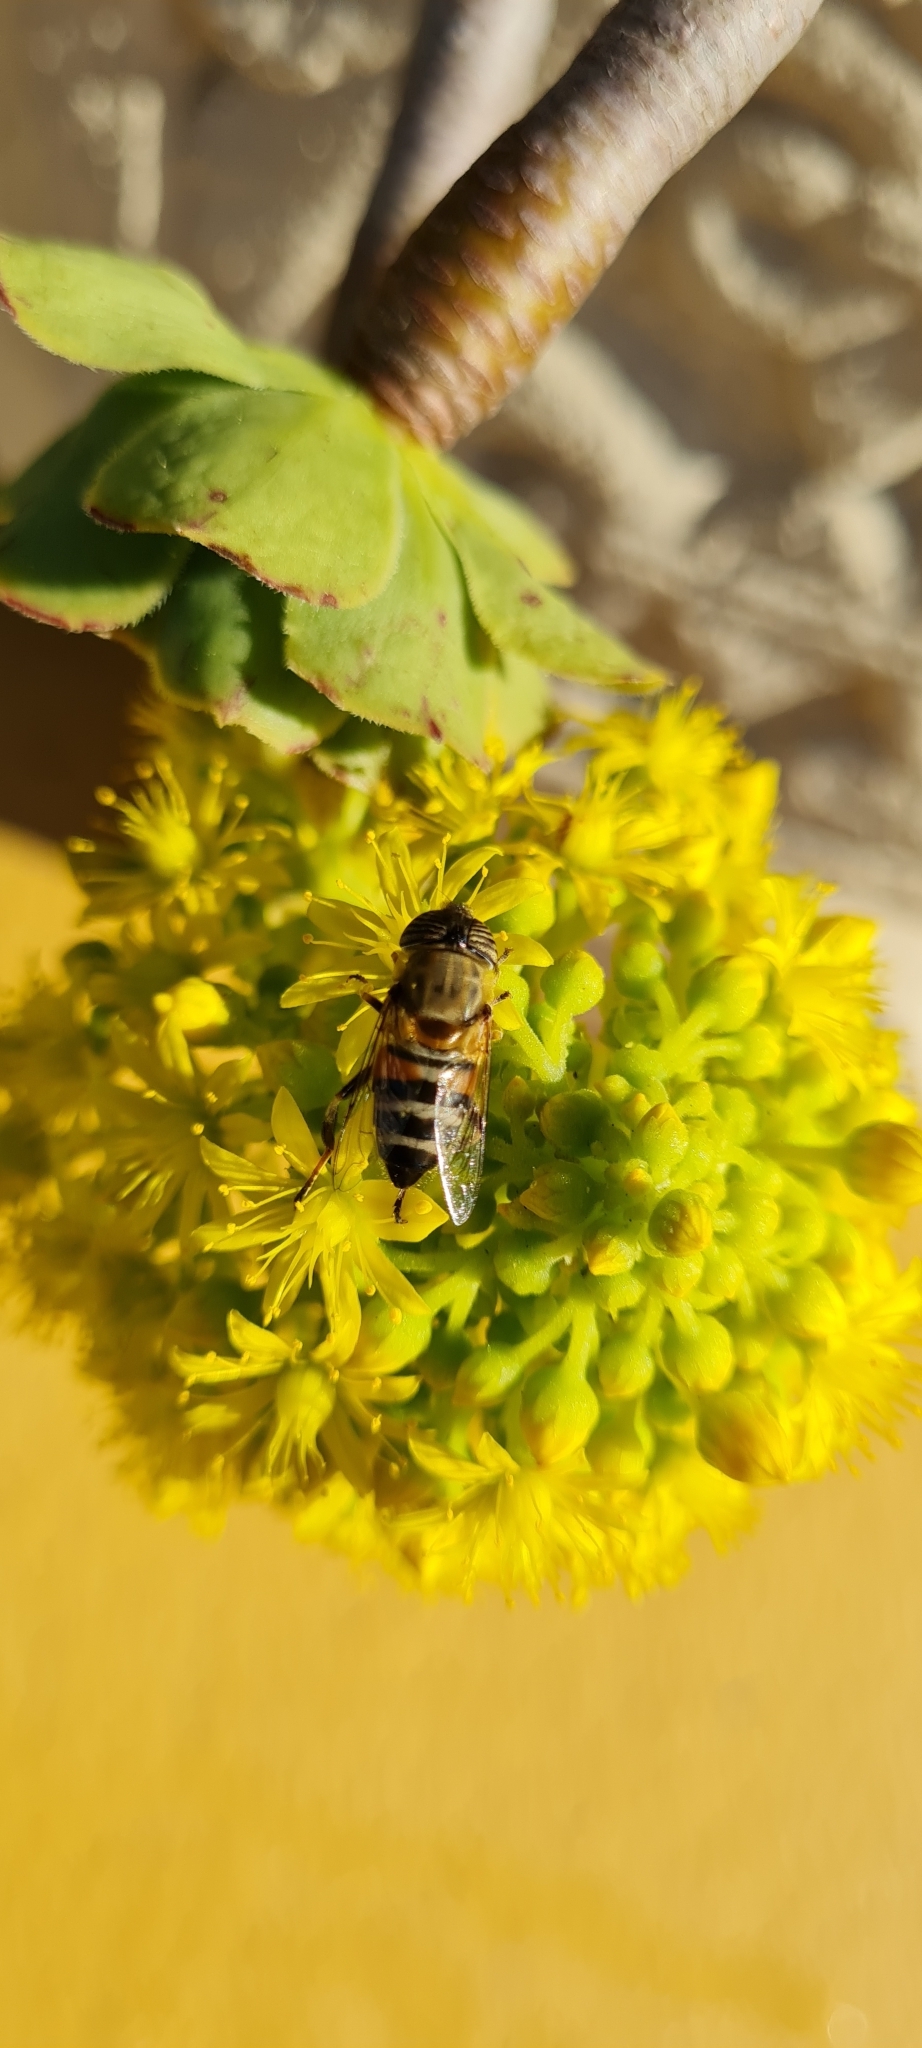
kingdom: Animalia
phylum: Arthropoda
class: Insecta
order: Diptera
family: Syrphidae
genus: Eristalinus
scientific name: Eristalinus taeniops
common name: Syrphid fly
